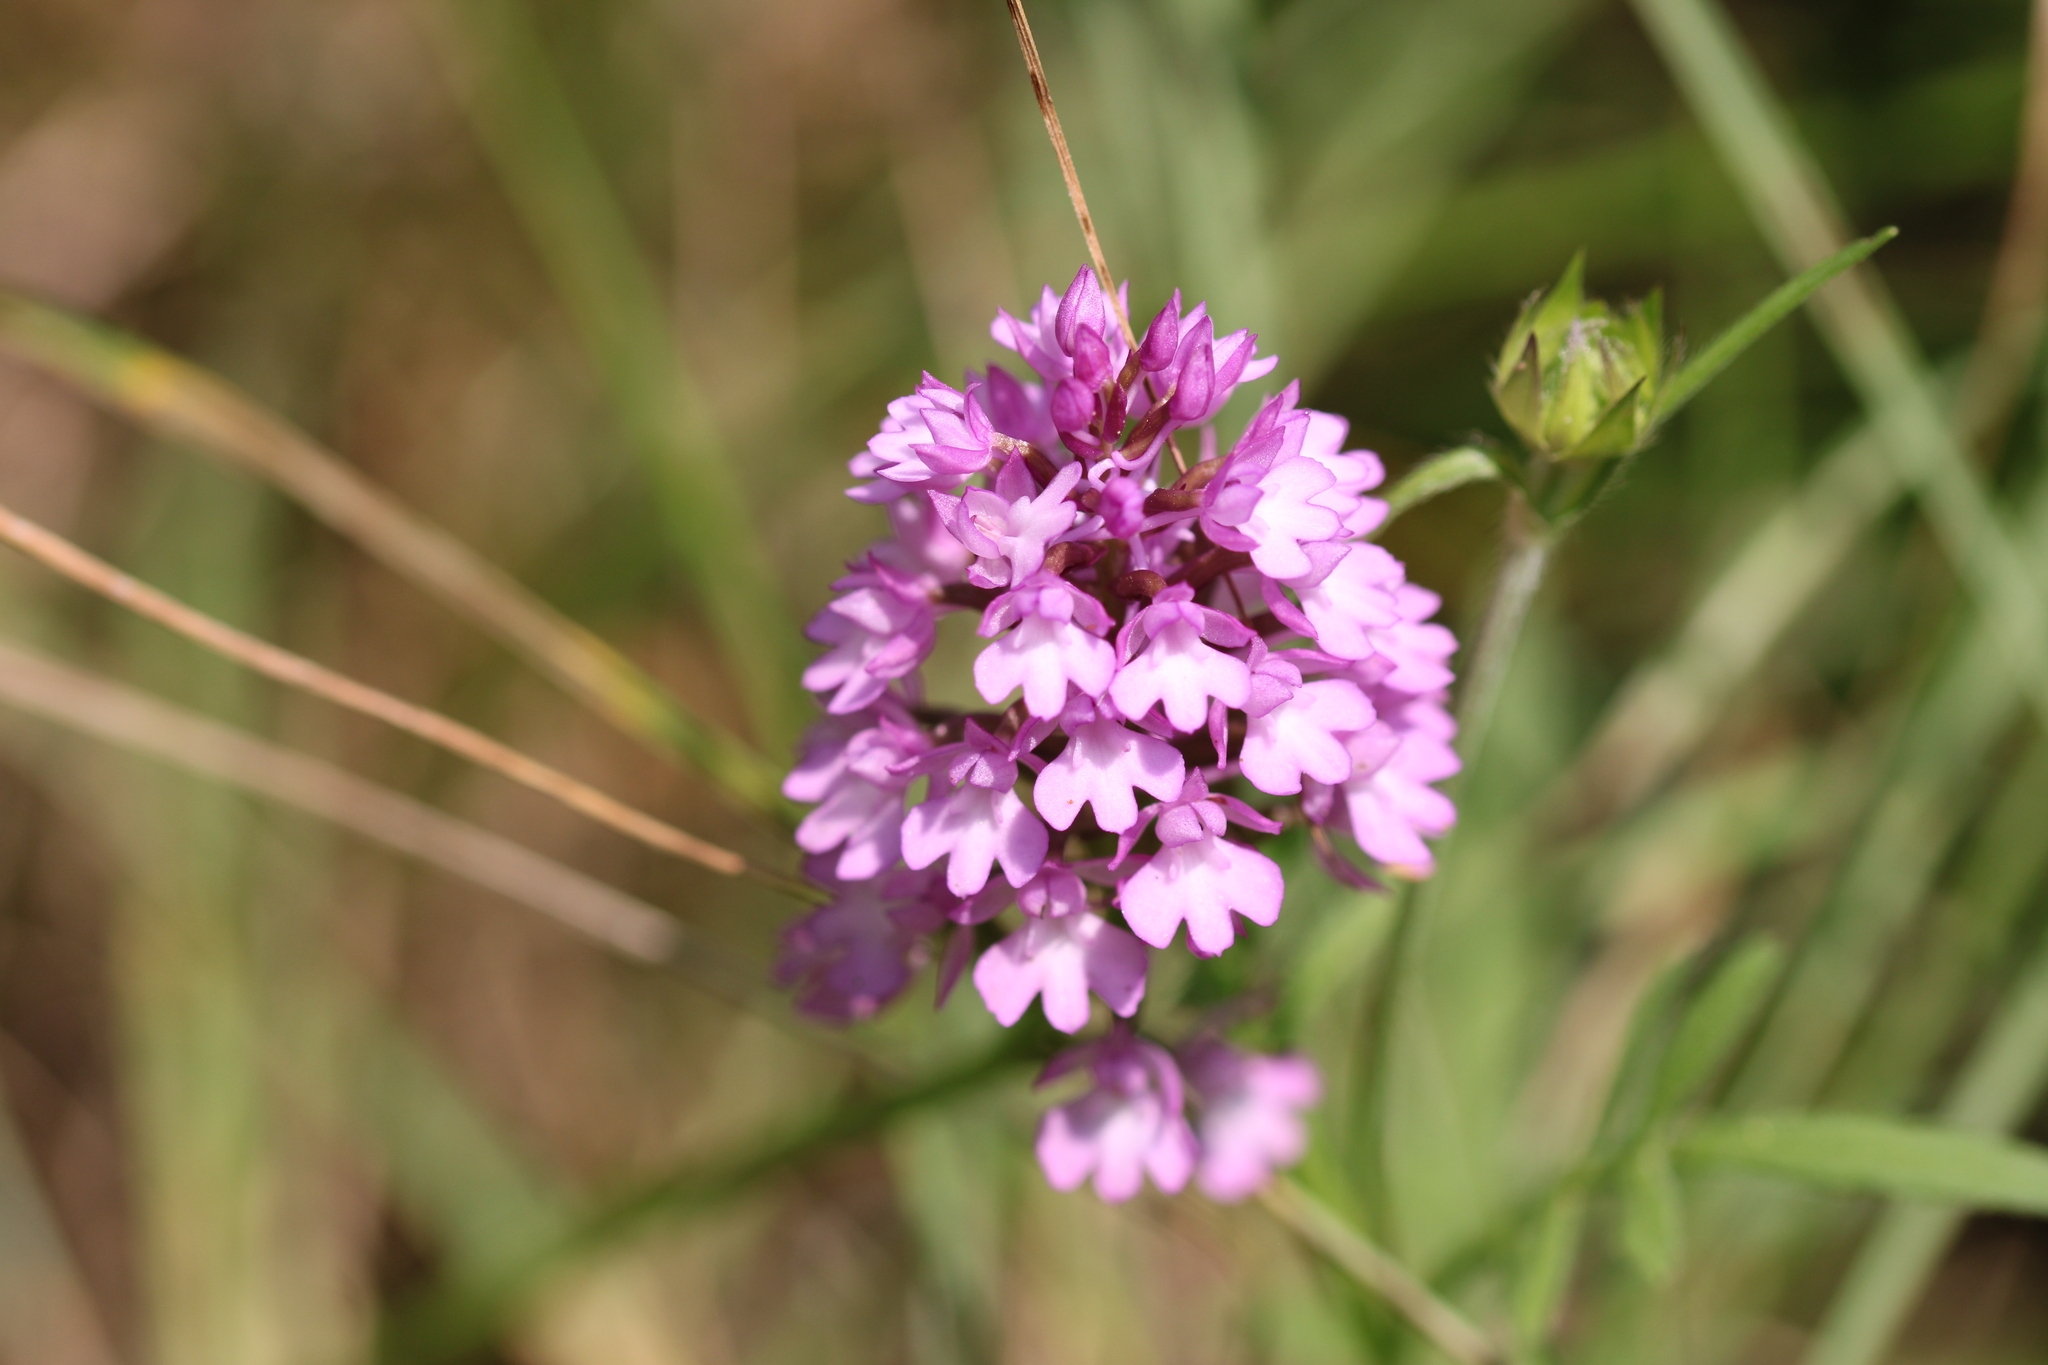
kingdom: Plantae
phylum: Tracheophyta
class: Liliopsida
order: Asparagales
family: Orchidaceae
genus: Anacamptis
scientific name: Anacamptis pyramidalis
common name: Pyramidal orchid
